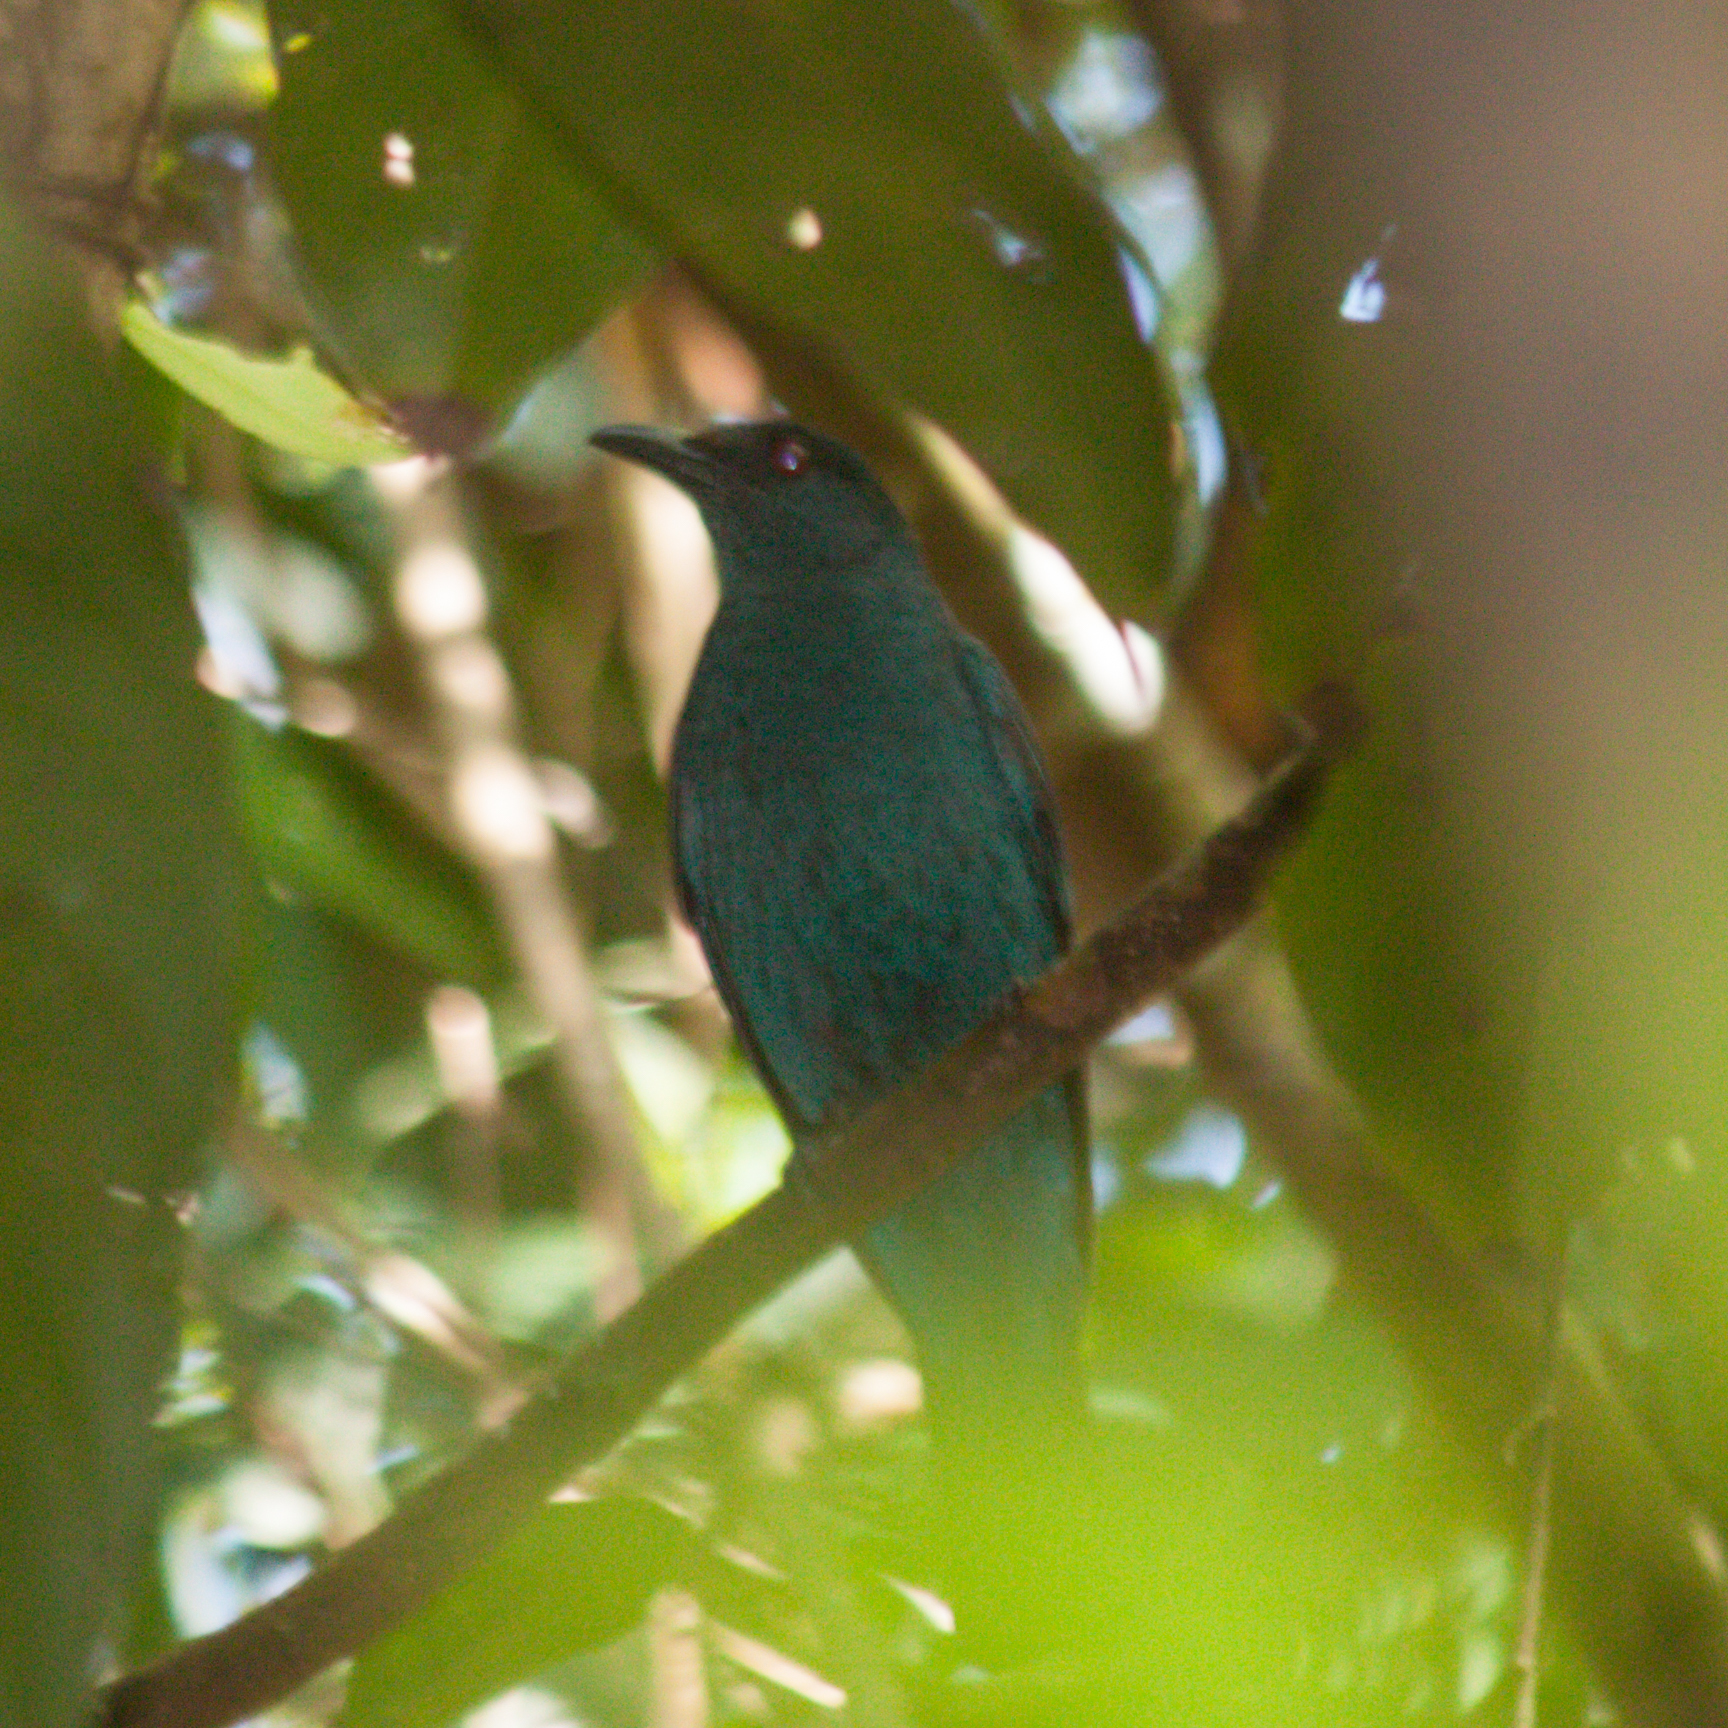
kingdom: Animalia
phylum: Chordata
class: Aves
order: Passeriformes
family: Irenidae
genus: Irena
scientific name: Irena puella
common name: Asian fairy-bluebird
